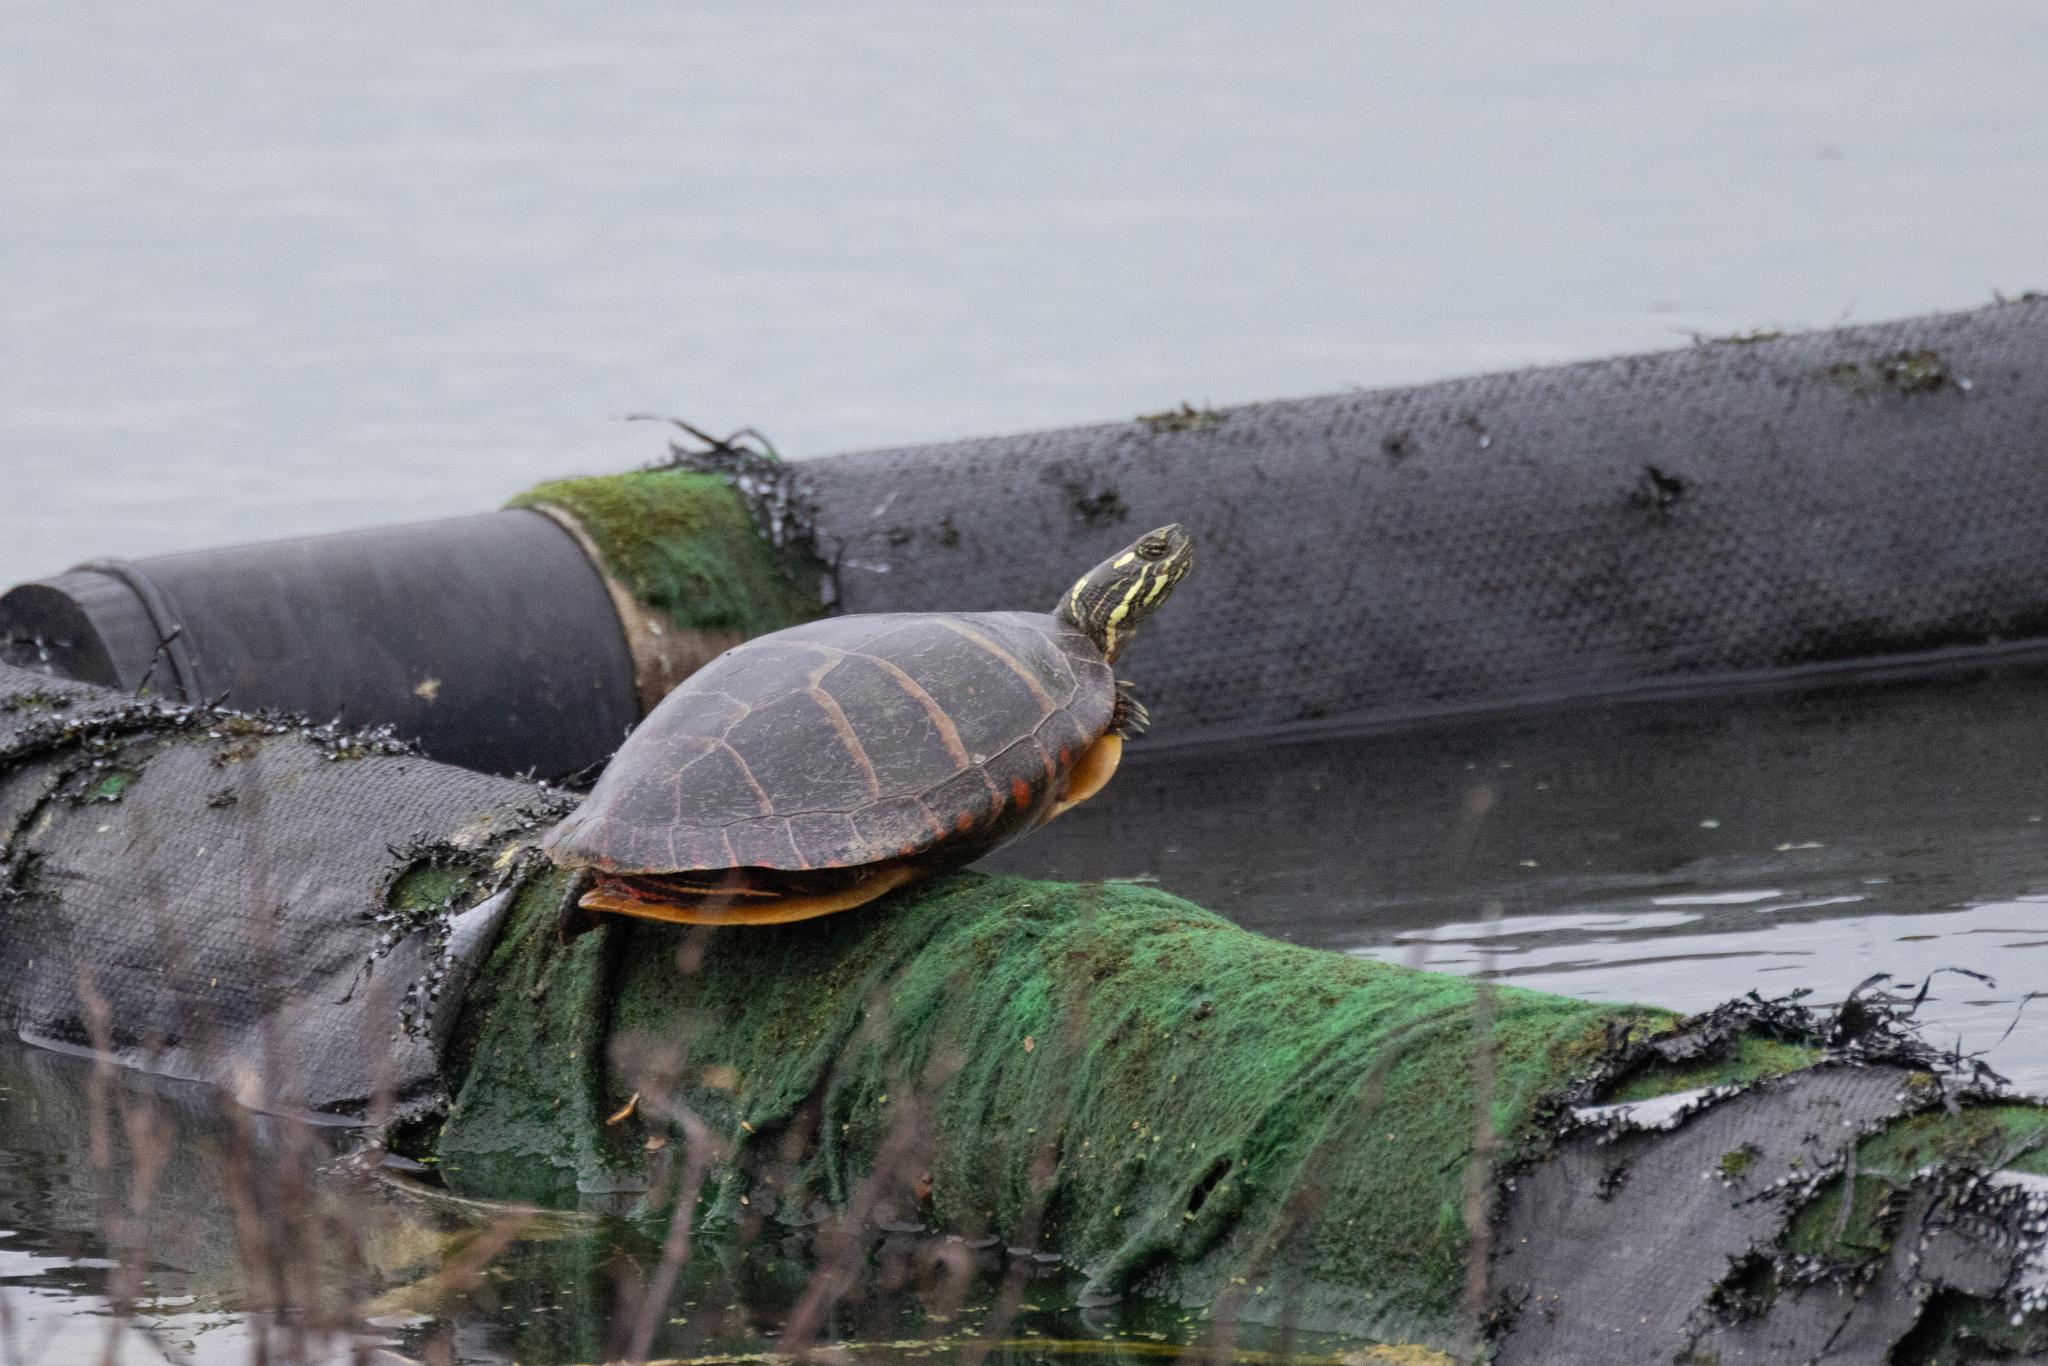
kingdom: Animalia
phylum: Chordata
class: Testudines
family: Emydidae
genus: Chrysemys
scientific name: Chrysemys picta
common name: Painted turtle
